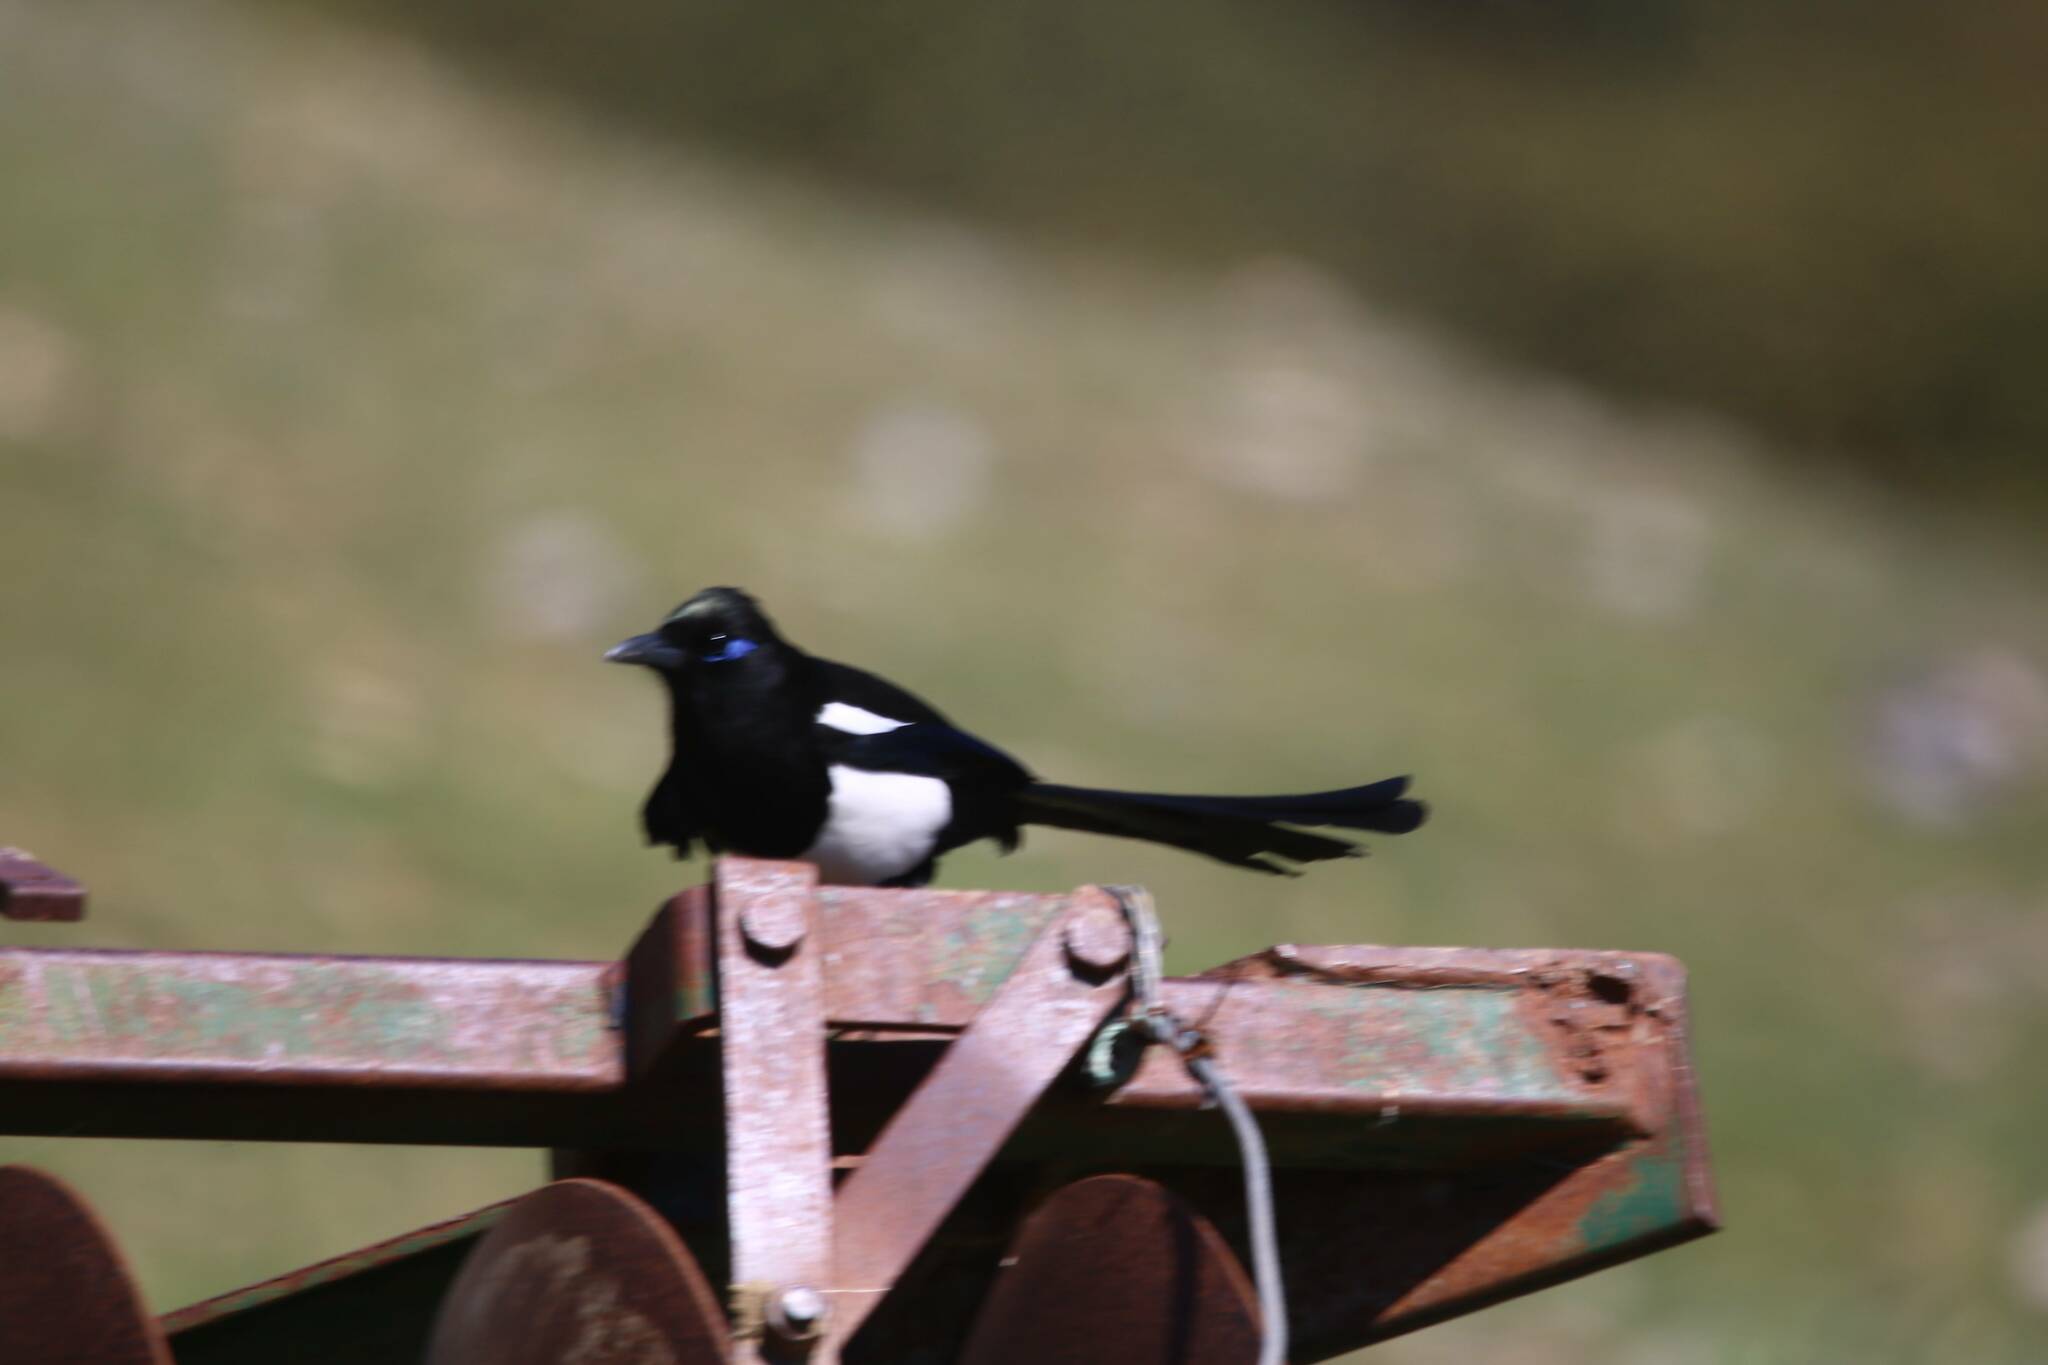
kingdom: Animalia
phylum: Chordata
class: Aves
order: Passeriformes
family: Corvidae
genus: Pica
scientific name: Pica mauritanica
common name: Maghreb magpie
